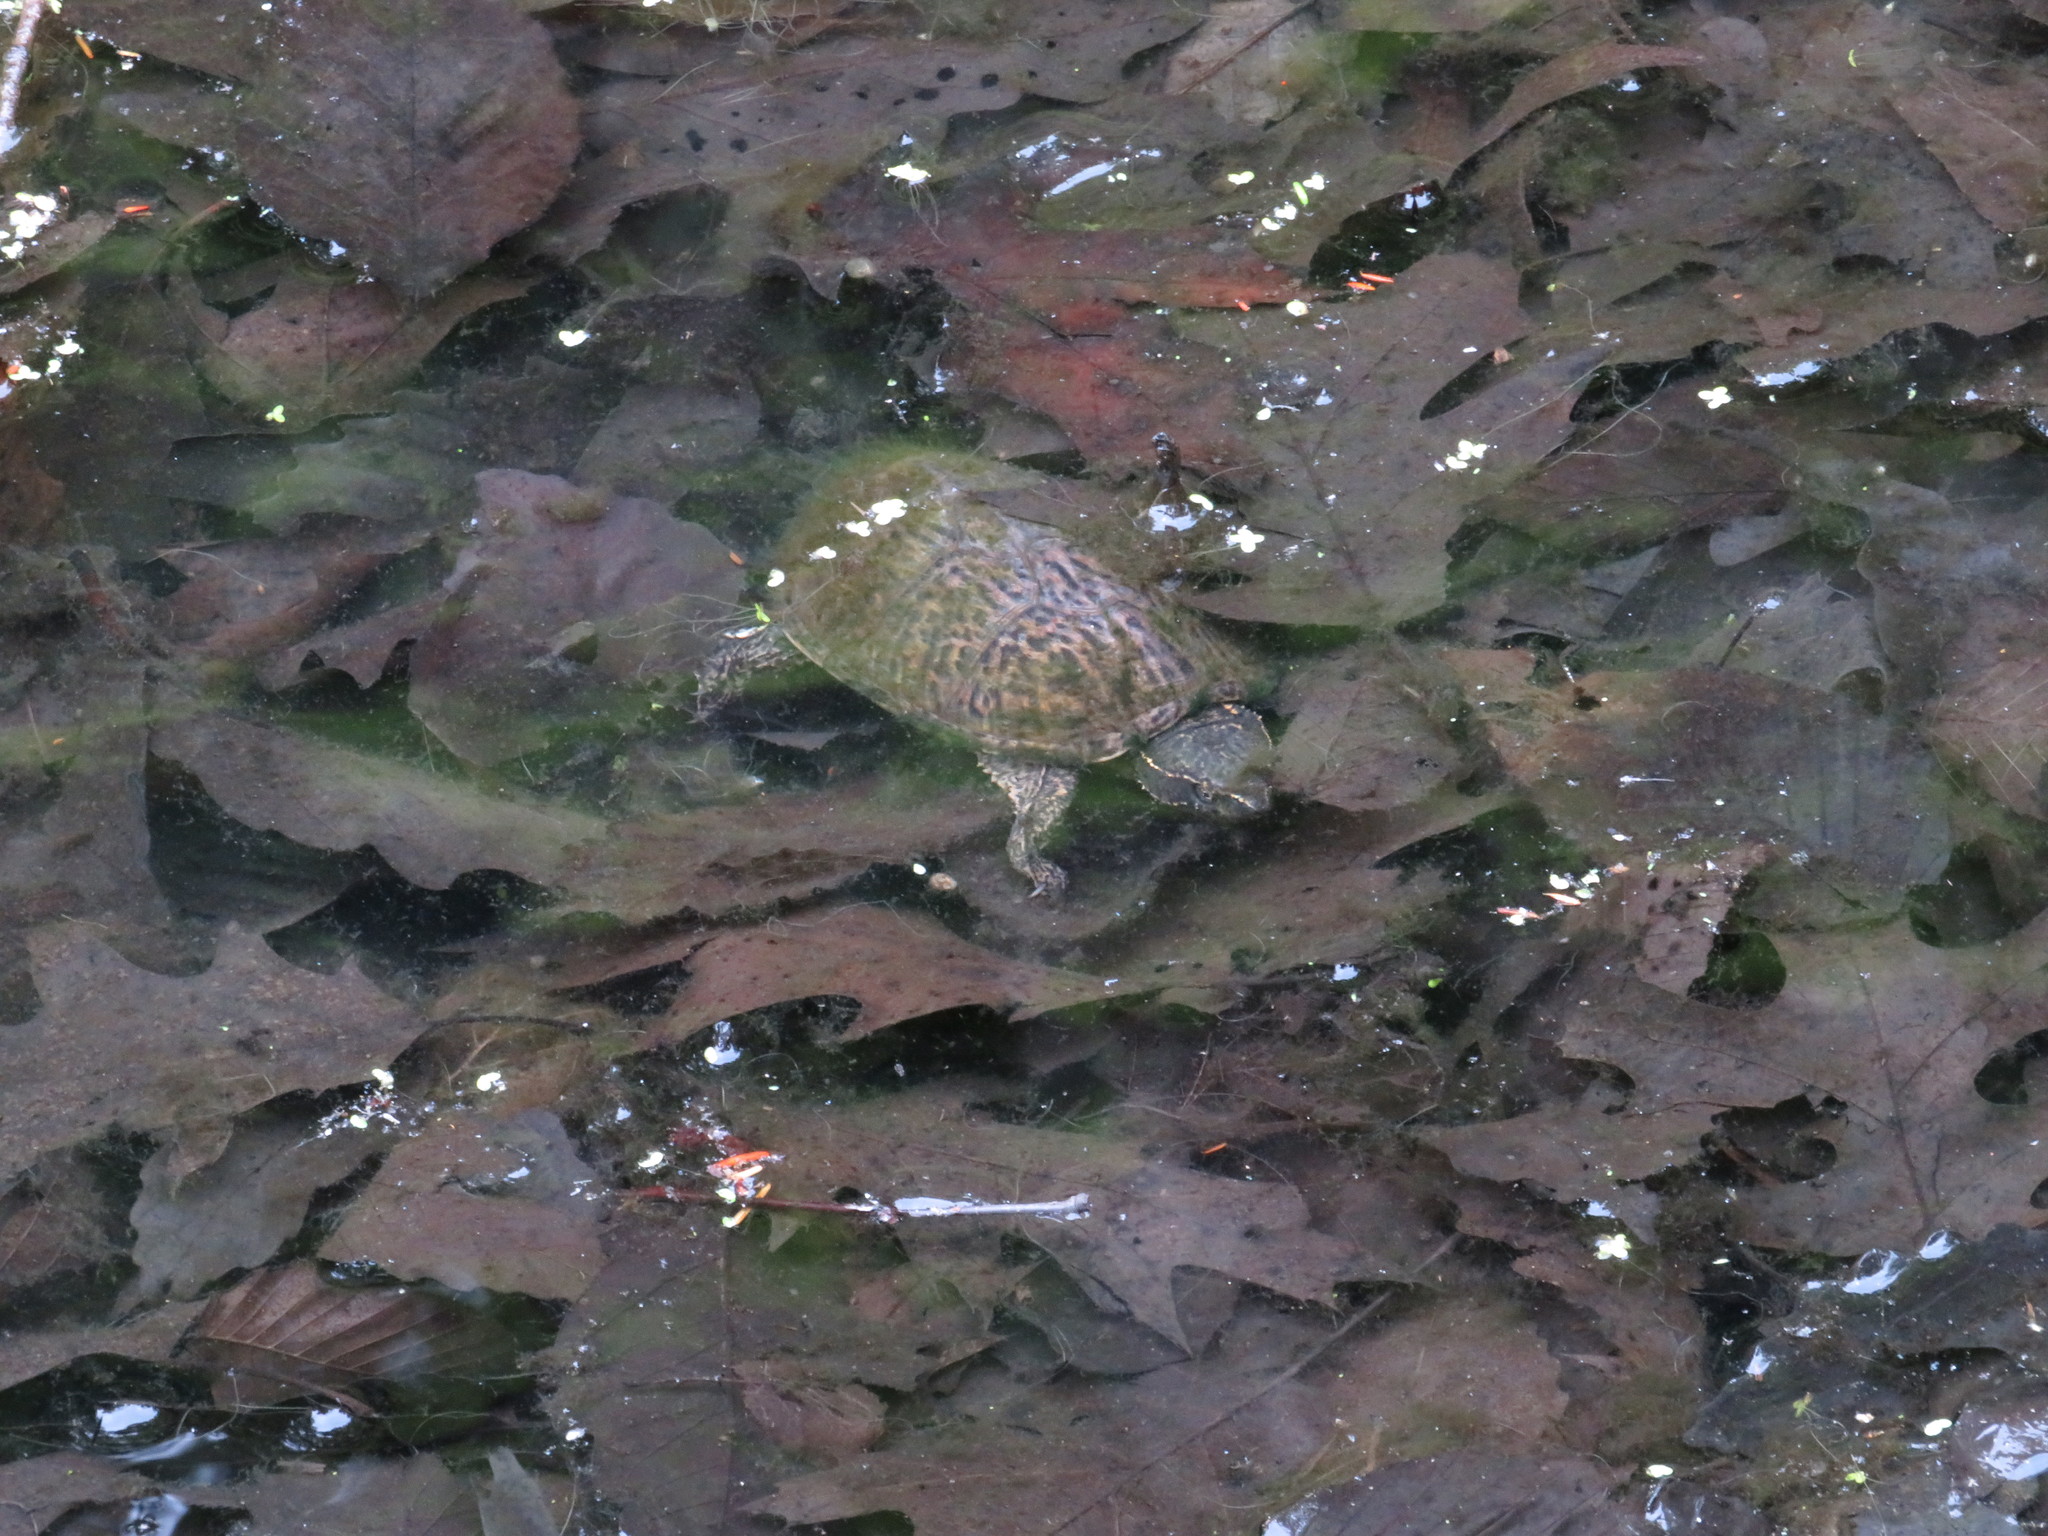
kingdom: Animalia
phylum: Chordata
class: Testudines
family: Kinosternidae
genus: Sternotherus
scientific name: Sternotherus odoratus
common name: Common musk turtle
